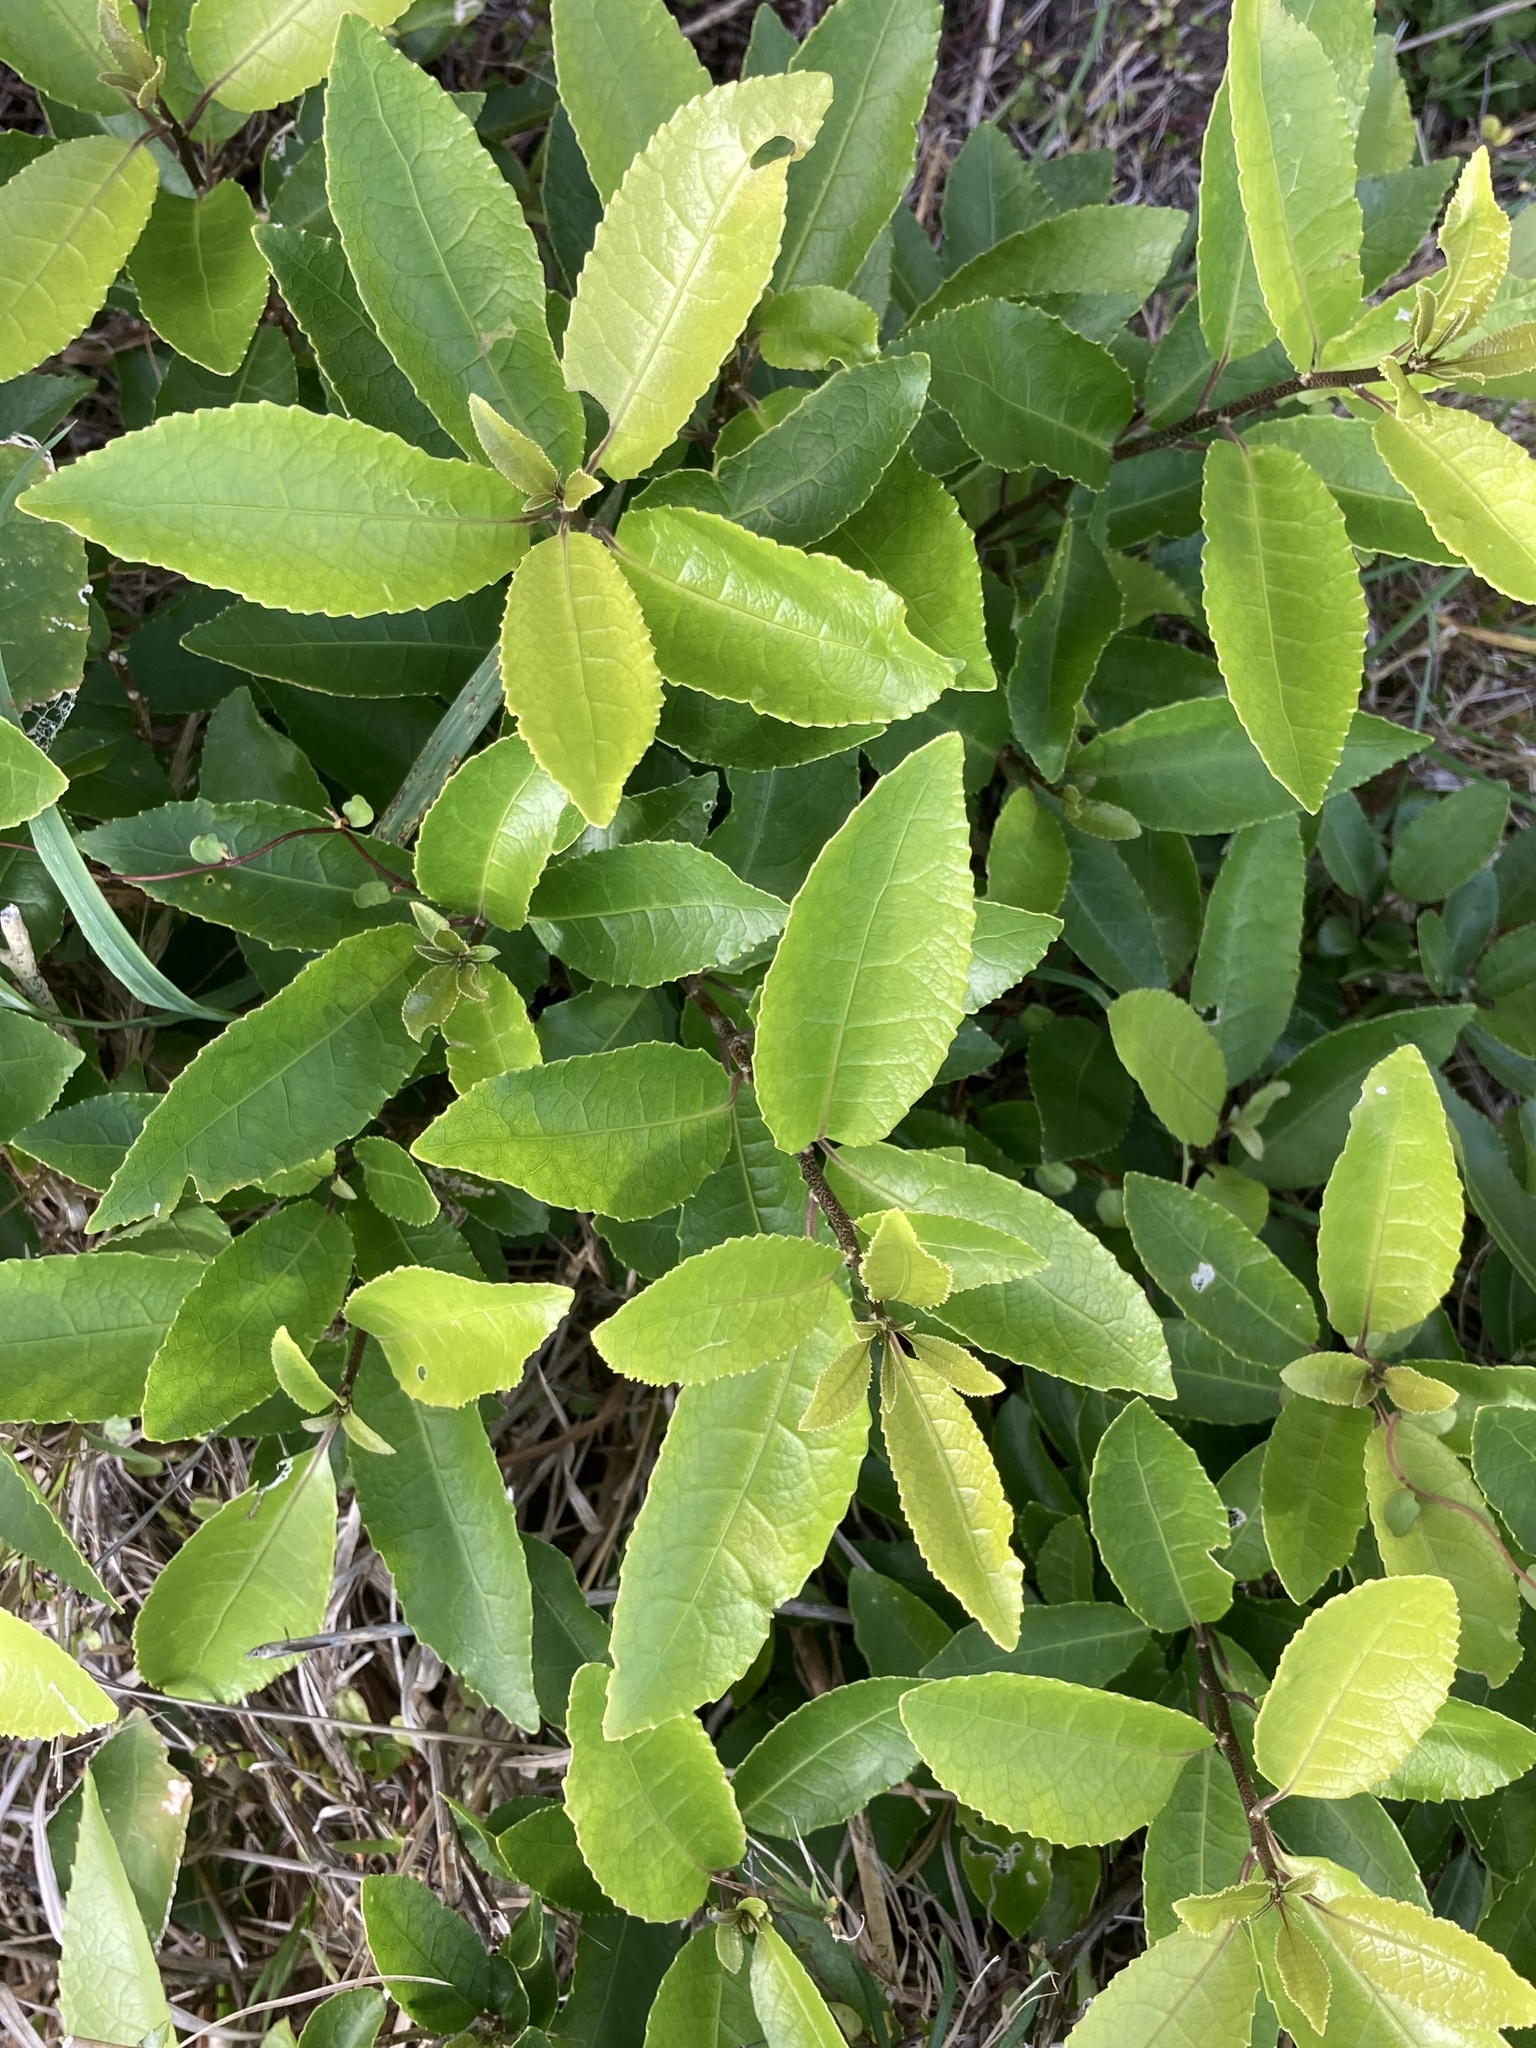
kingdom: Plantae
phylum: Tracheophyta
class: Magnoliopsida
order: Malpighiales
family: Violaceae
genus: Melicytus
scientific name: Melicytus ramiflorus
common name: Mahoe
